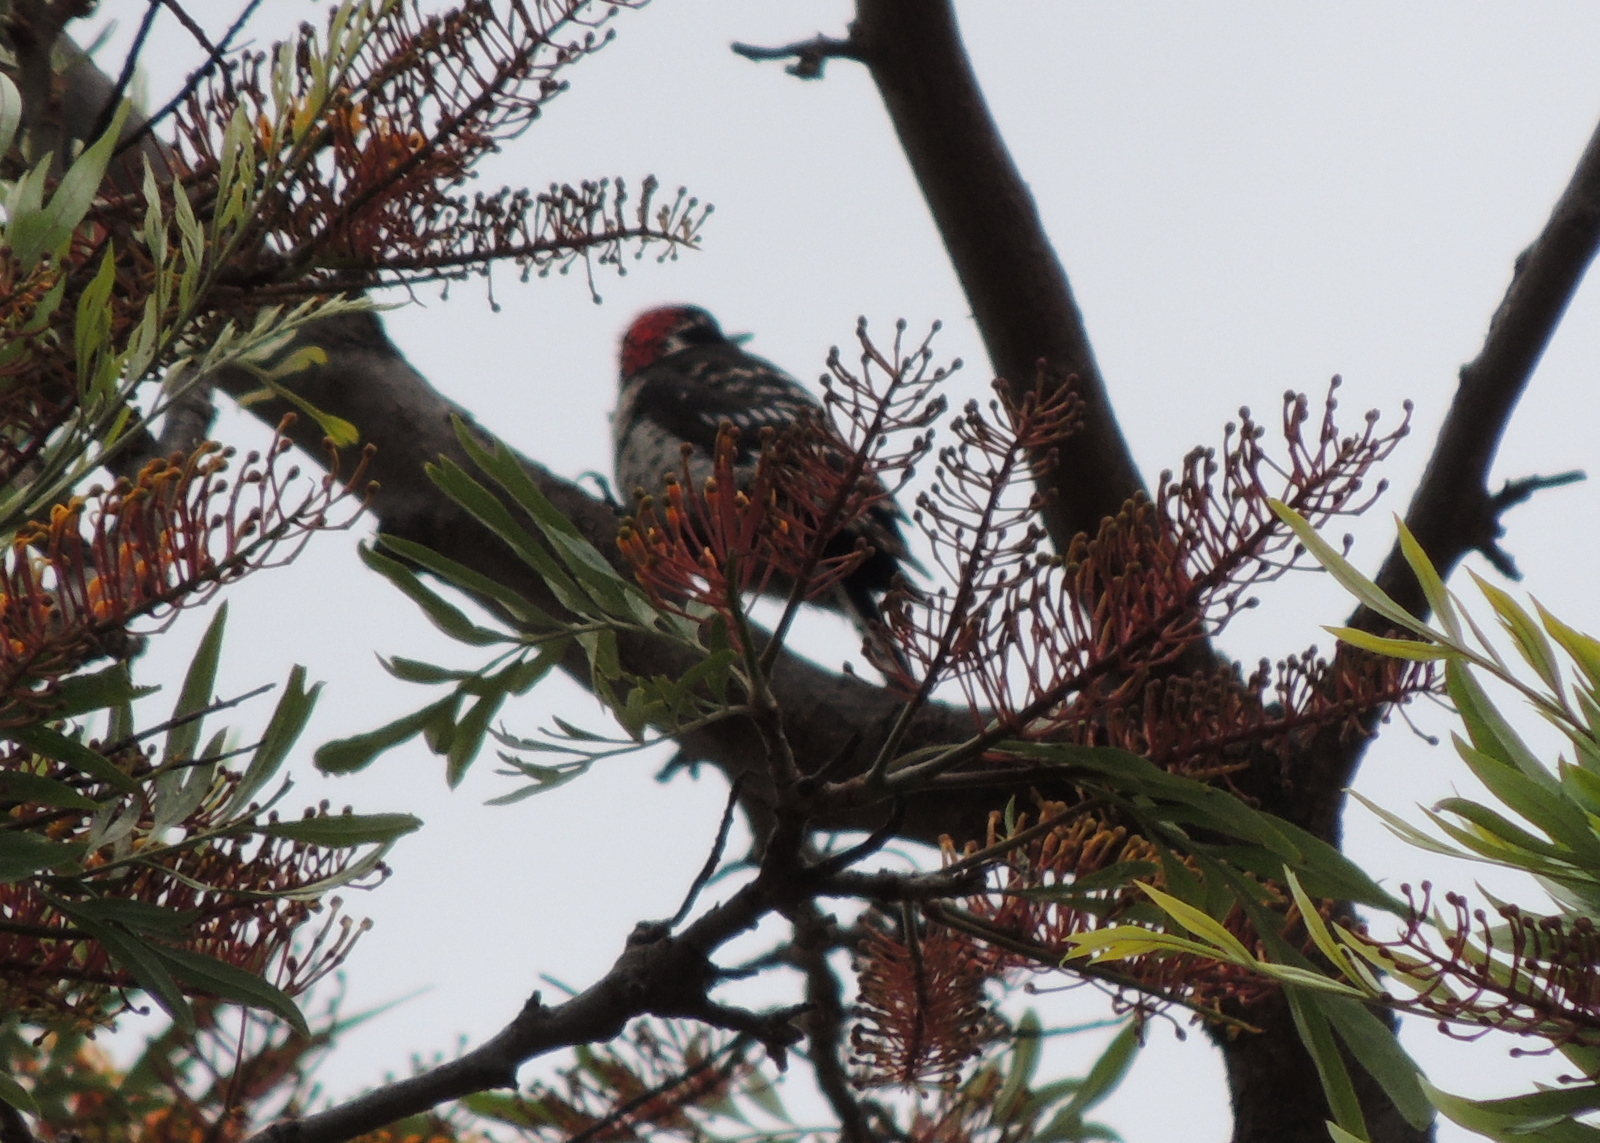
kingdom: Animalia
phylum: Chordata
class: Aves
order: Piciformes
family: Picidae
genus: Dryobates
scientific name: Dryobates nuttallii
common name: Nuttall's woodpecker
